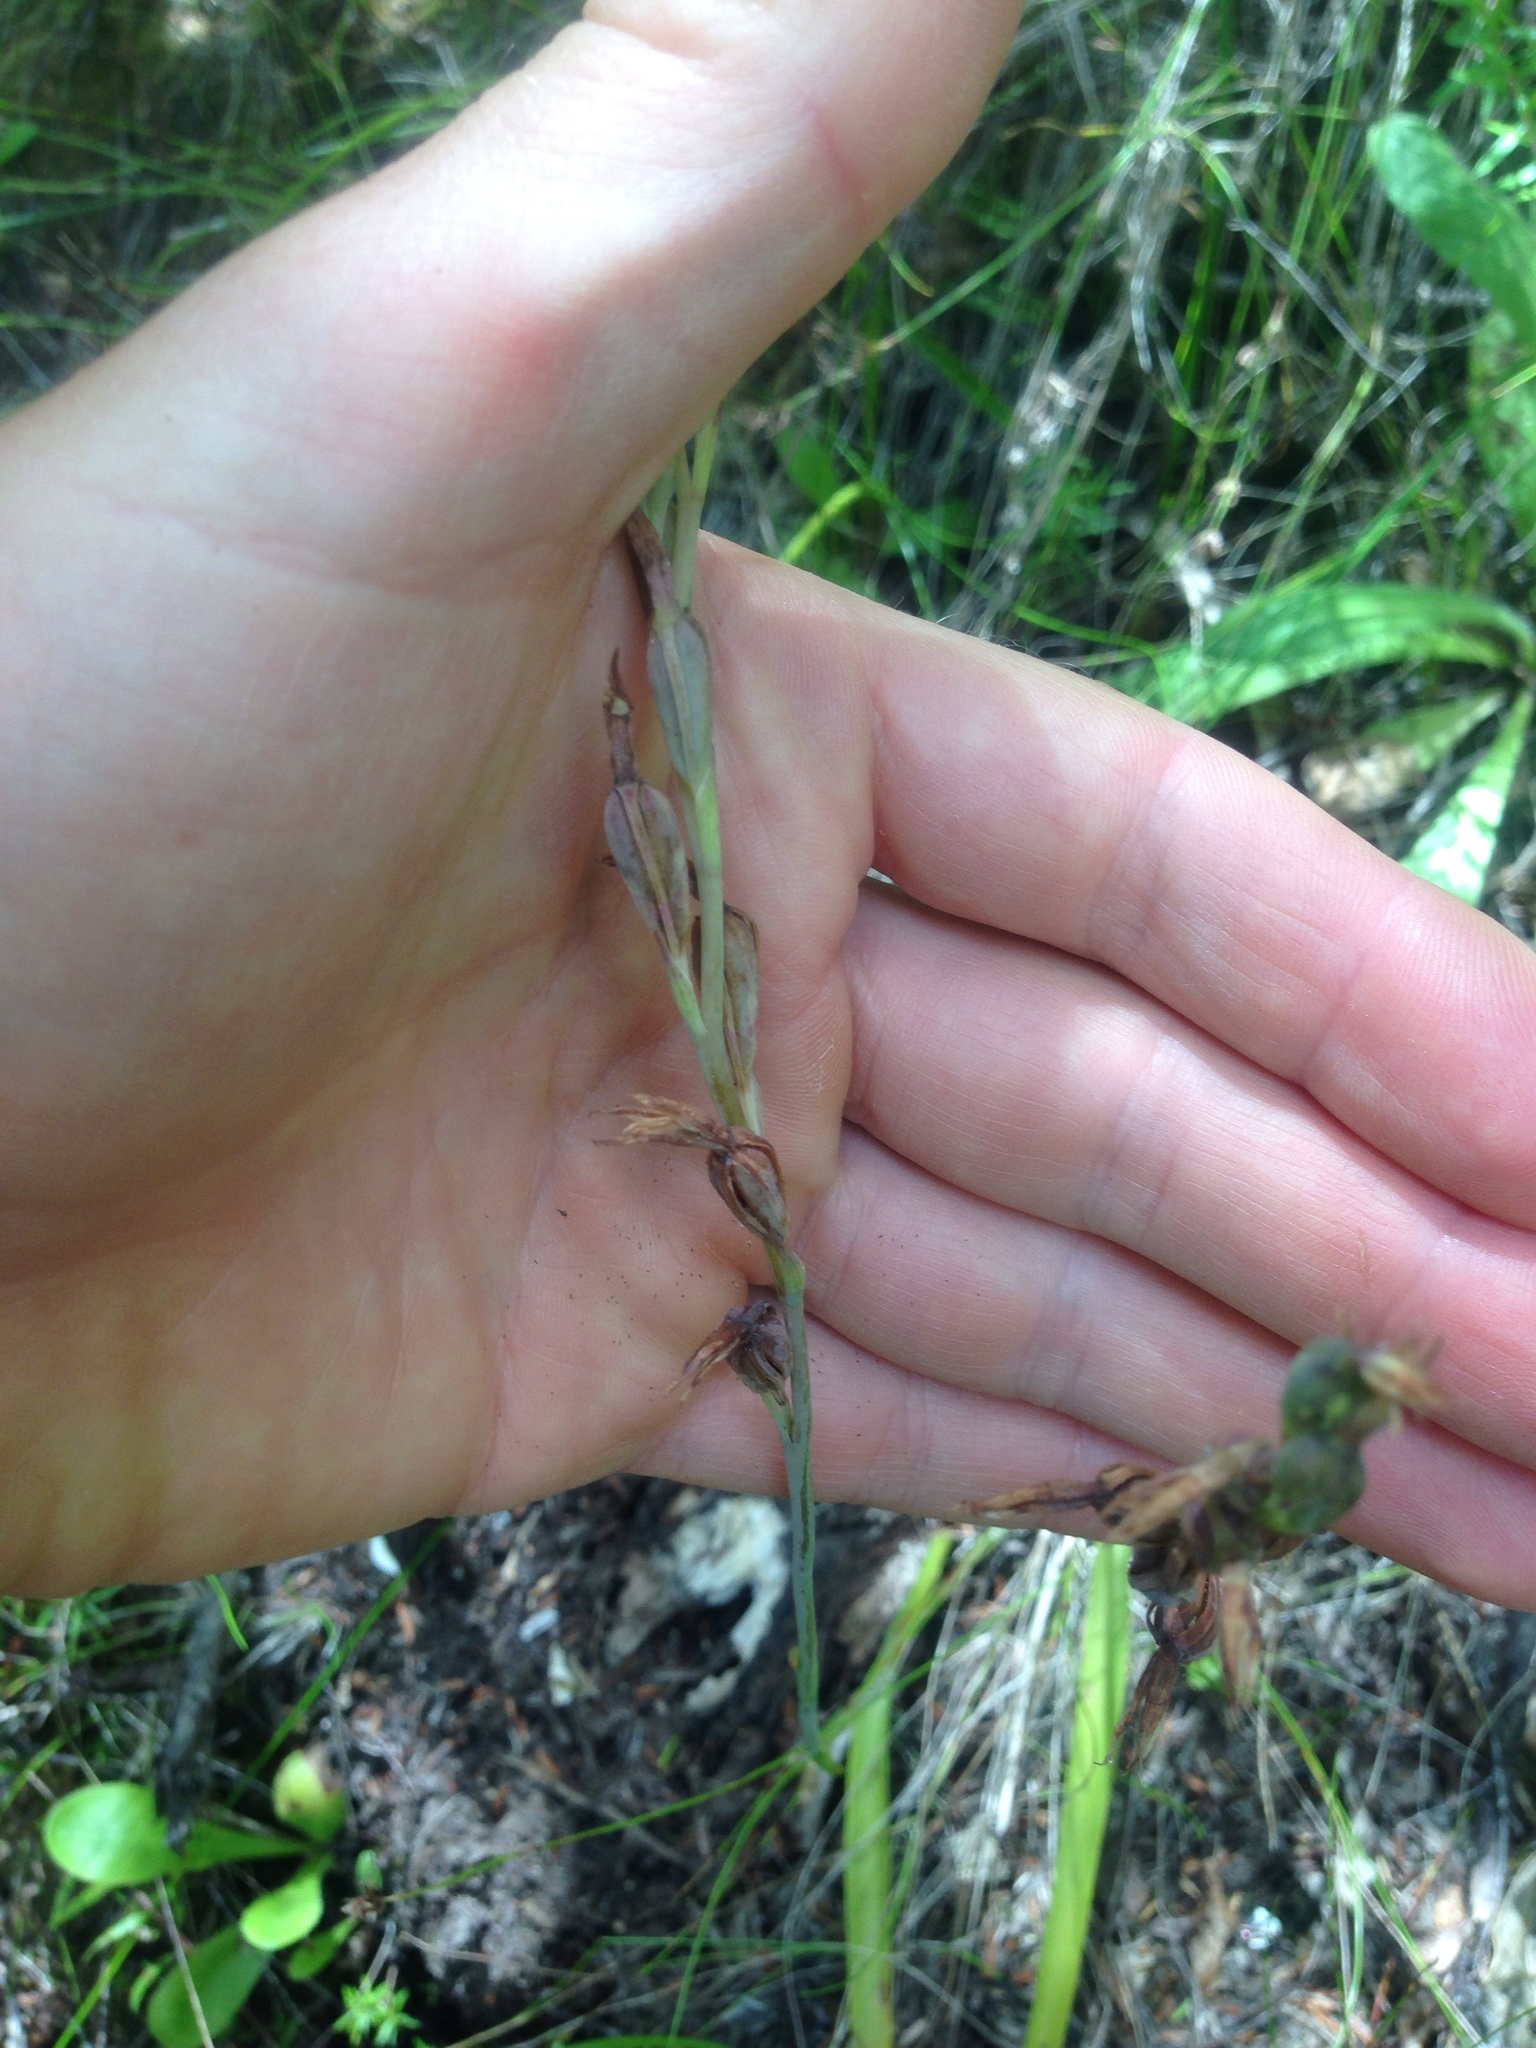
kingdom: Plantae
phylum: Tracheophyta
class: Liliopsida
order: Asparagales
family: Orchidaceae
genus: Thelymitra
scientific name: Thelymitra longifolia
